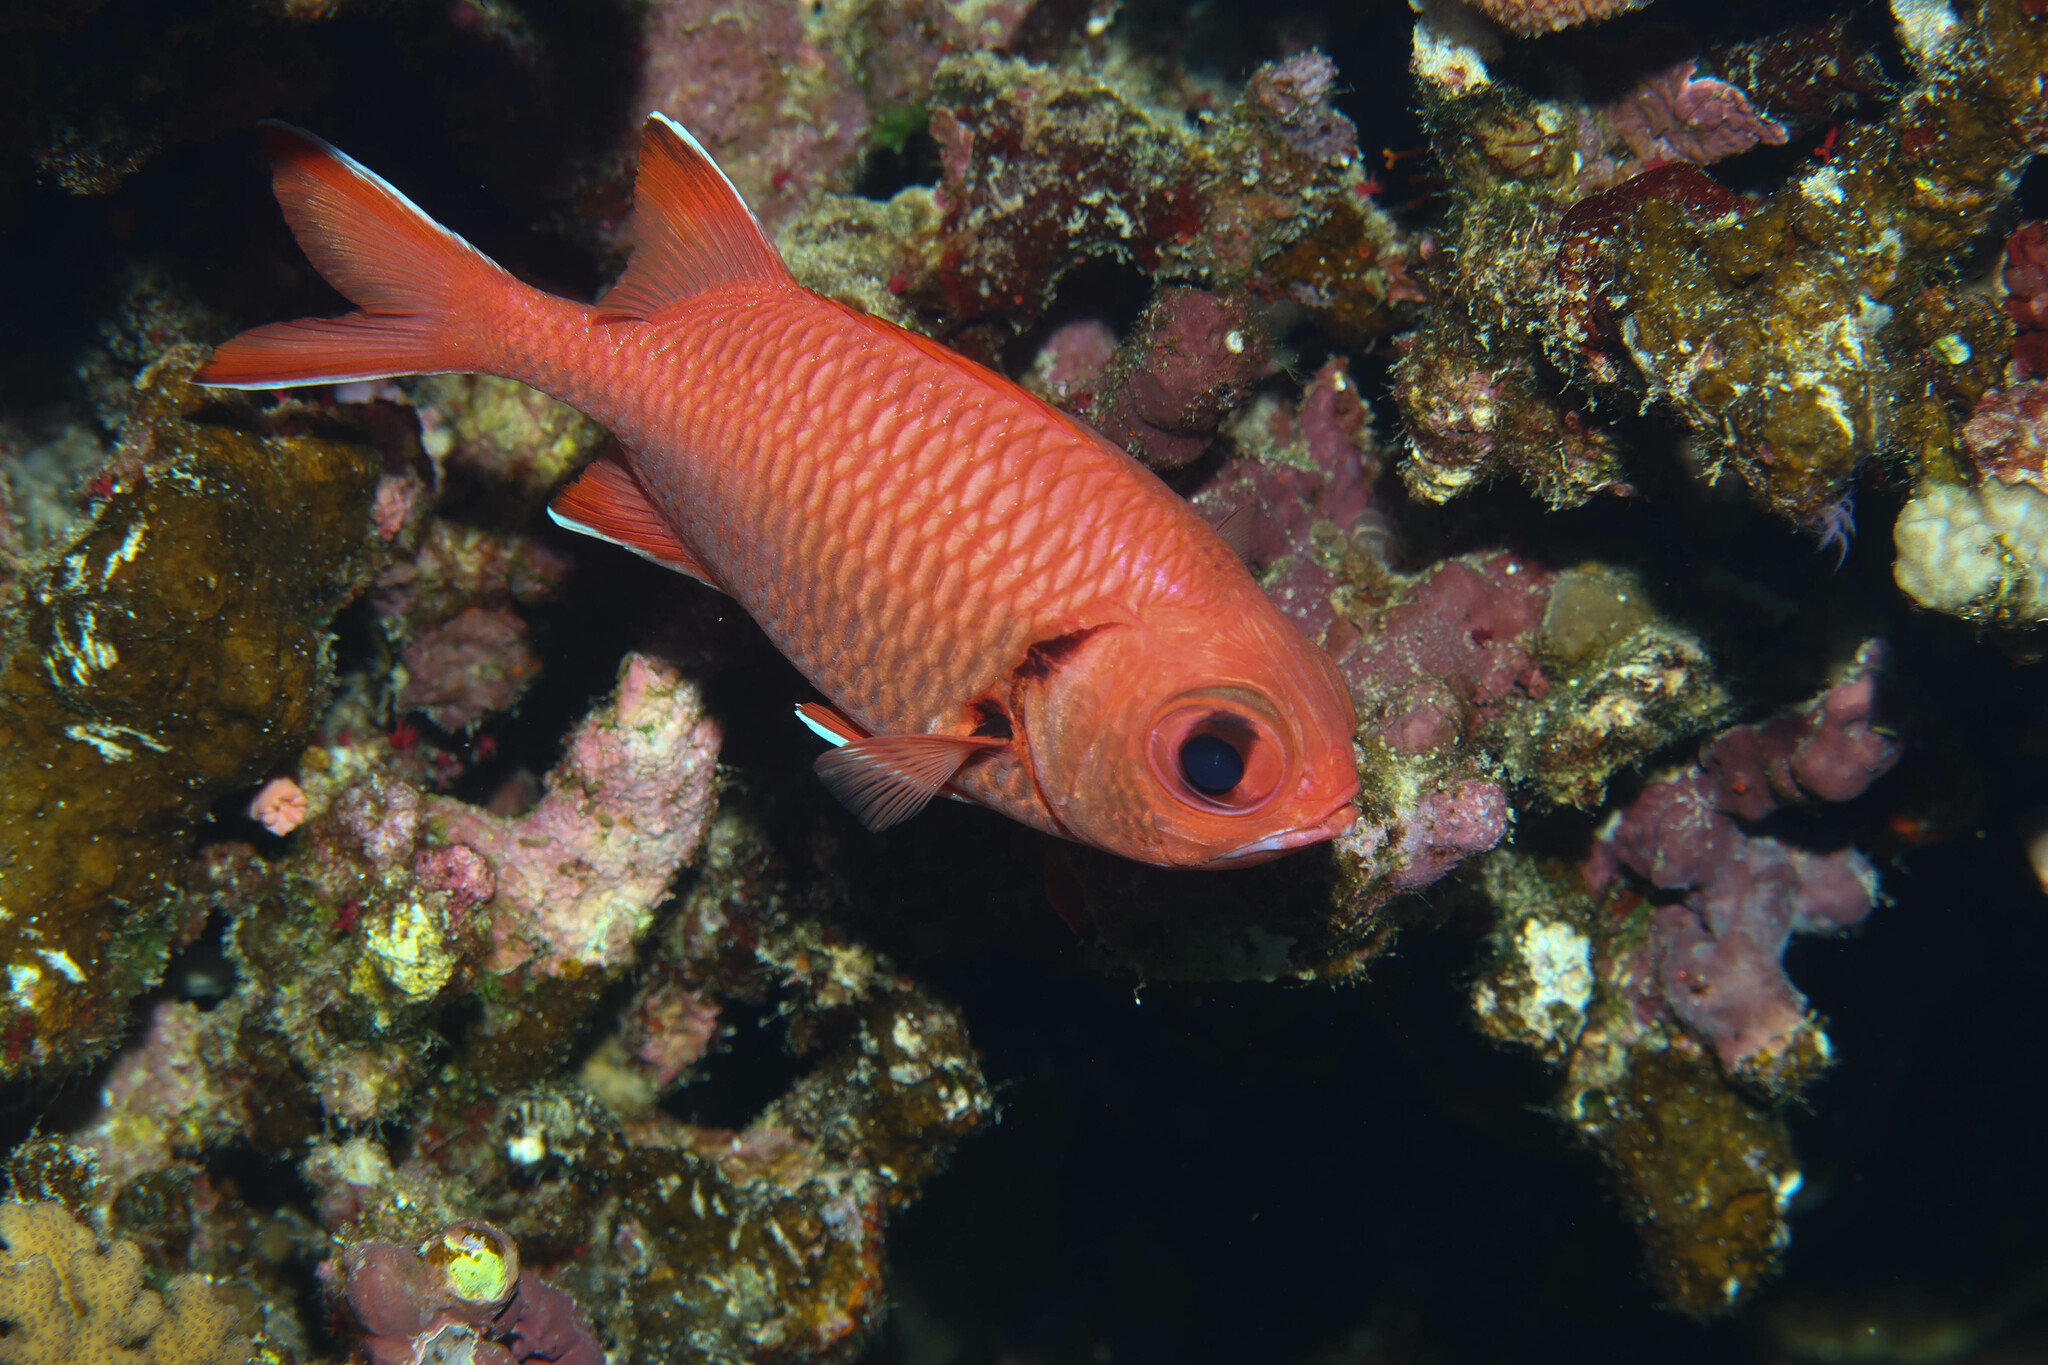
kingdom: Animalia
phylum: Chordata
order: Beryciformes
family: Holocentridae
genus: Myripristis
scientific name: Myripristis murdjan
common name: Big-eye soldierfish
